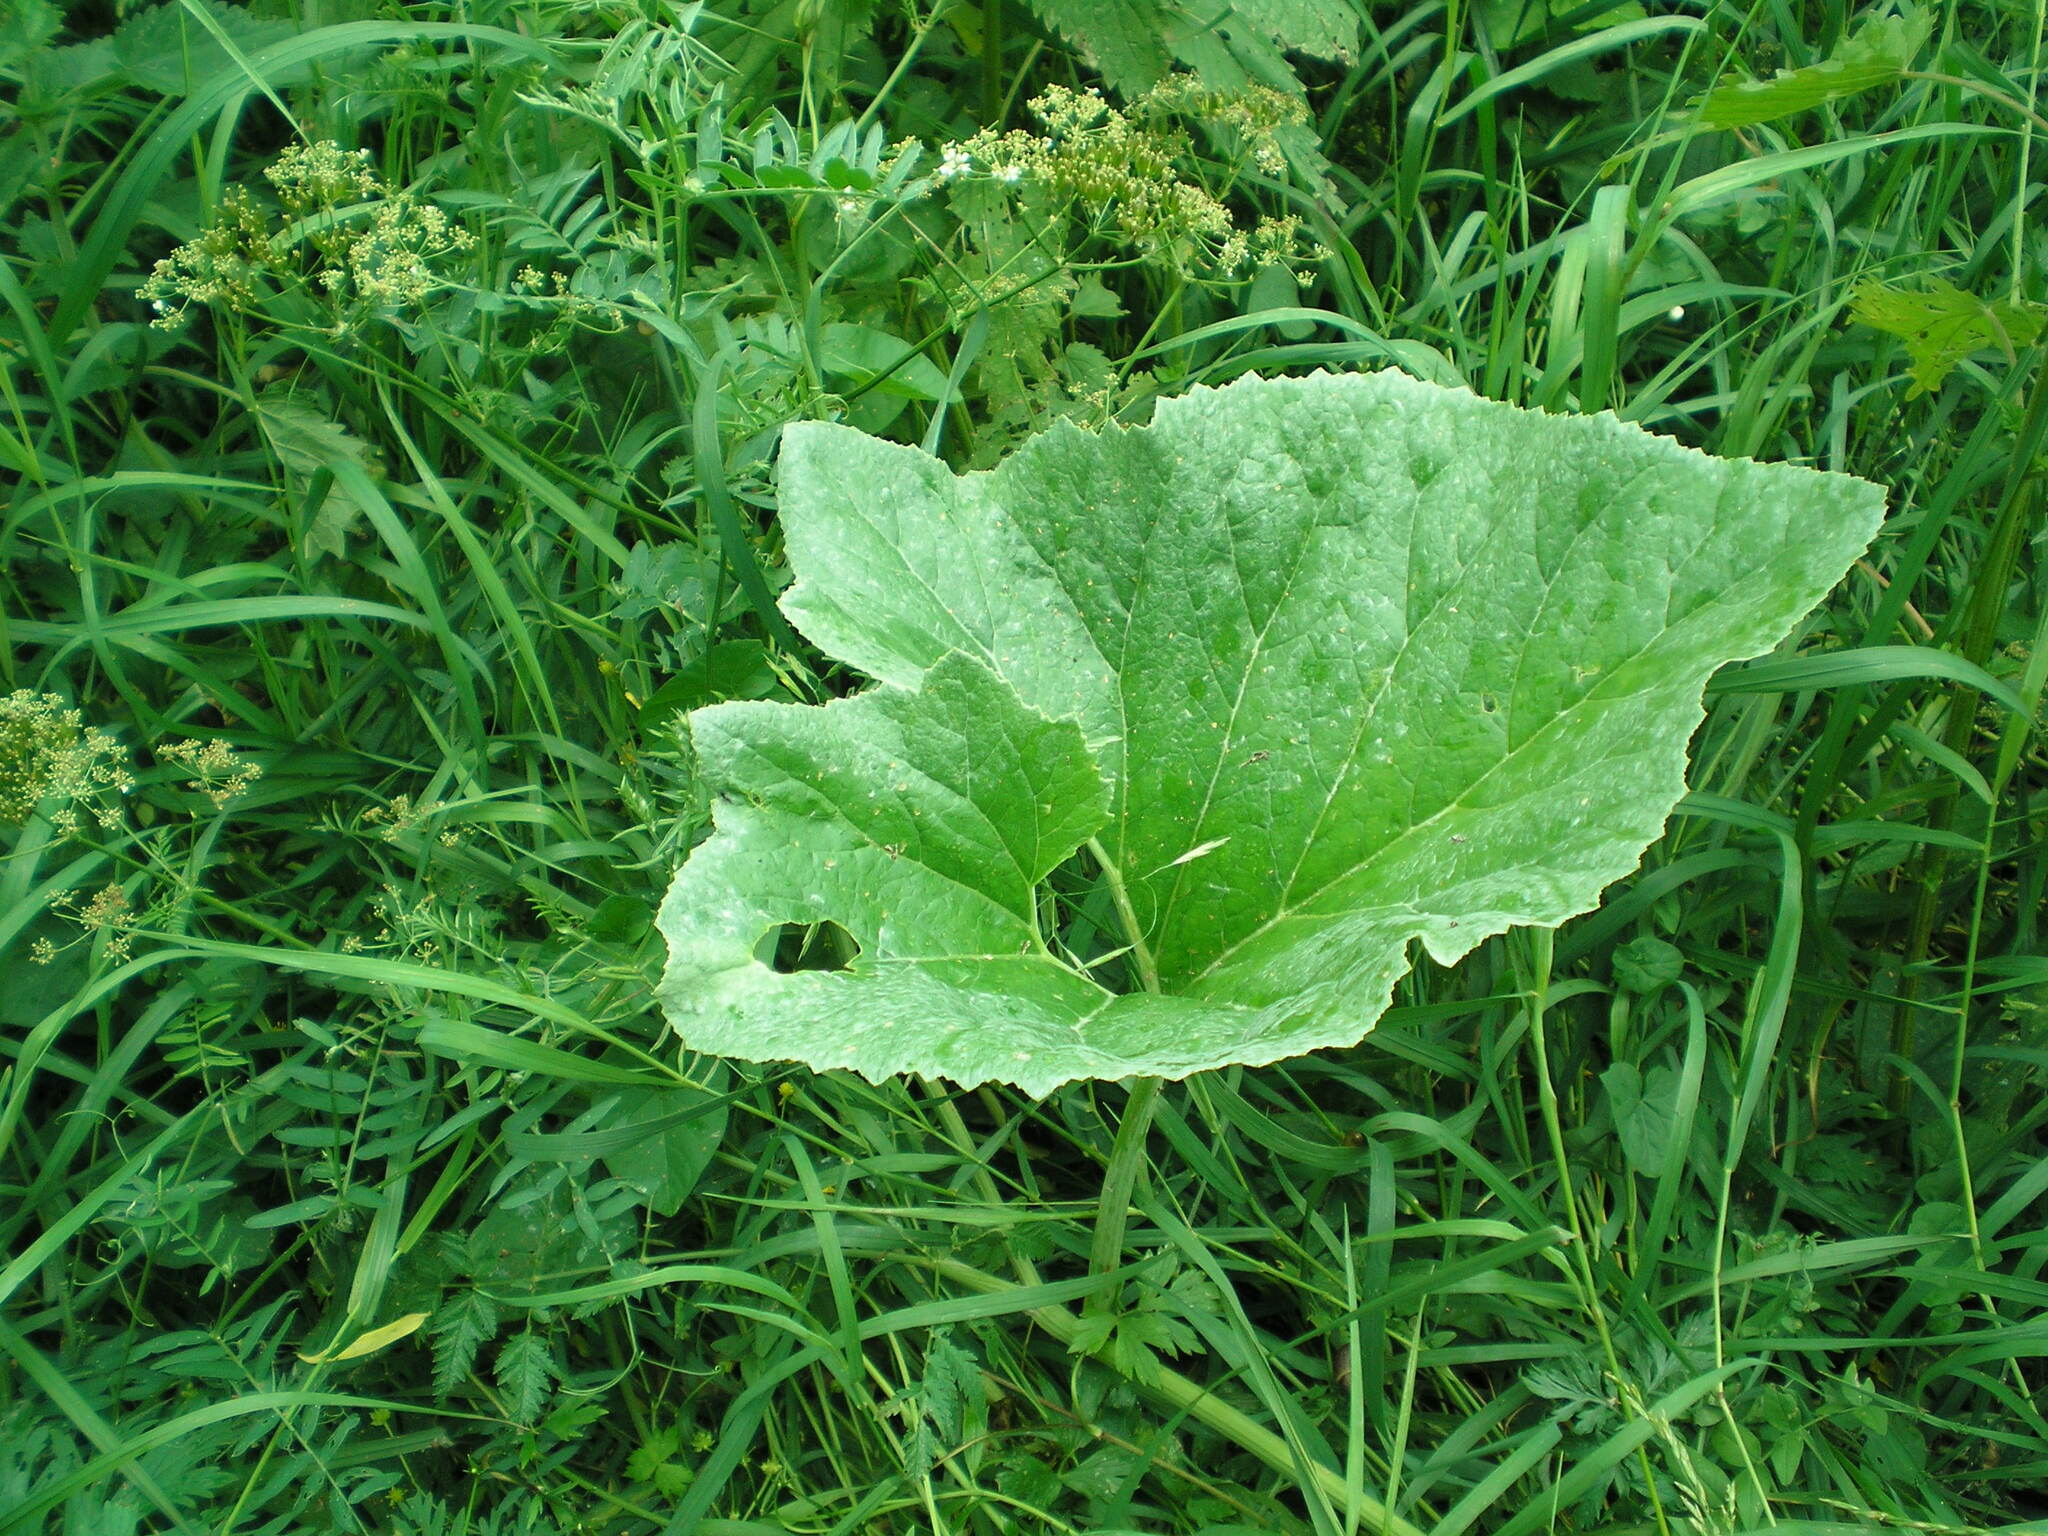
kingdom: Plantae
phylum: Tracheophyta
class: Magnoliopsida
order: Asterales
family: Asteraceae
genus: Petasites
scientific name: Petasites spurius
